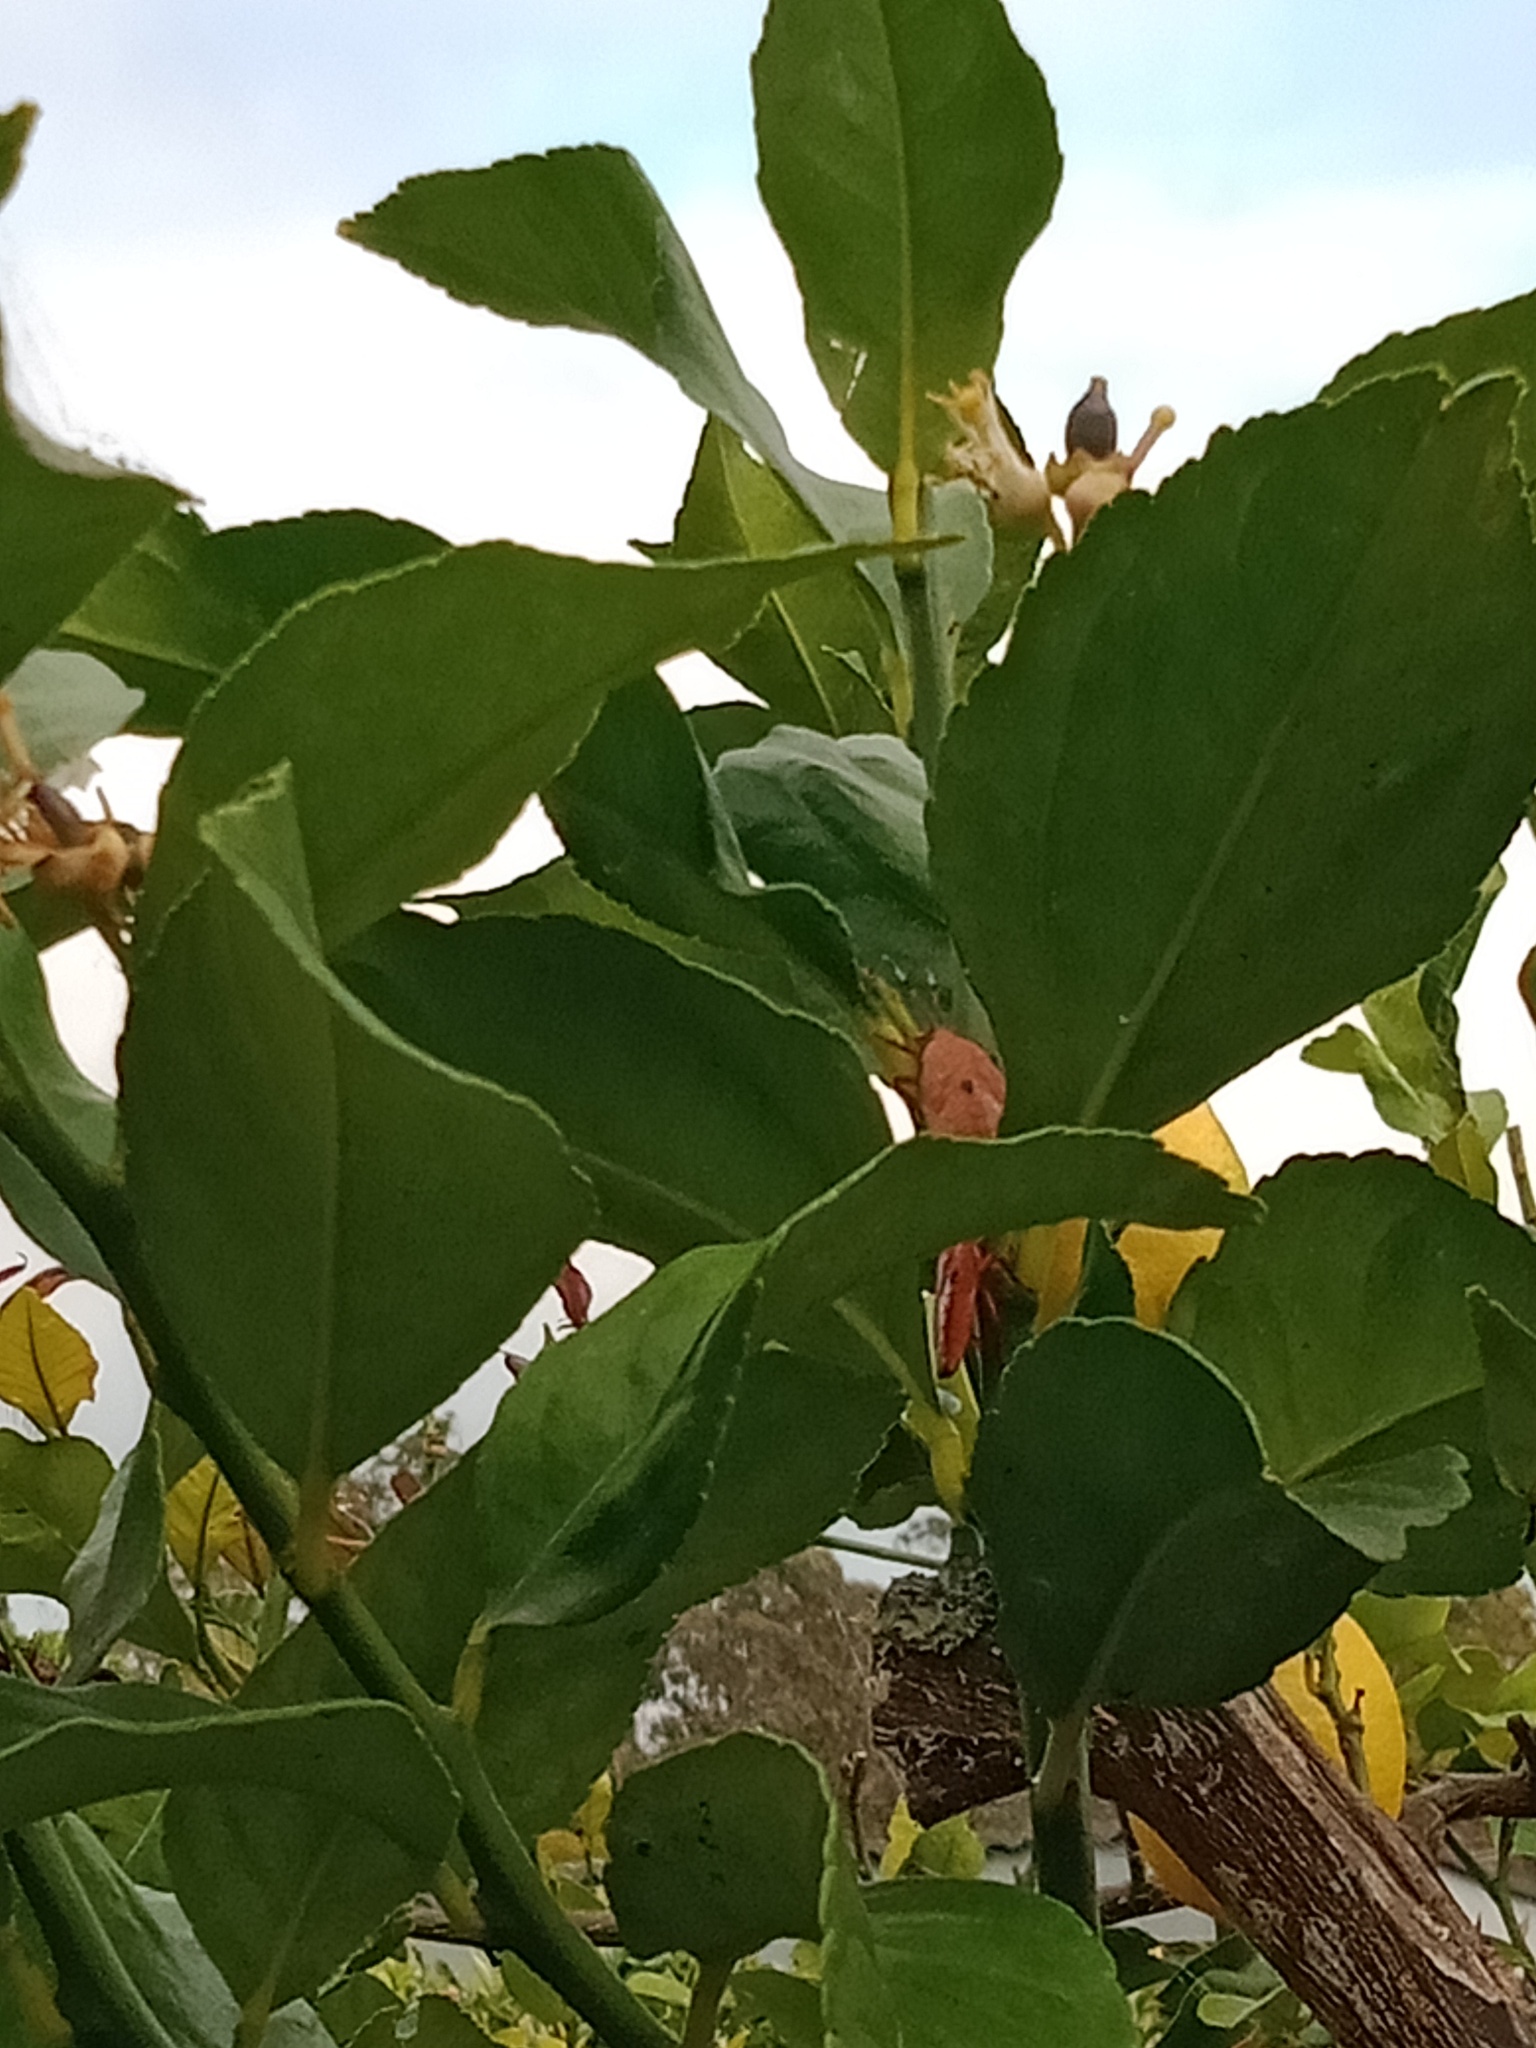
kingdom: Animalia
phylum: Arthropoda
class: Insecta
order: Hemiptera
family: Tessaratomidae
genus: Musgraveia
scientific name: Musgraveia sulciventris
